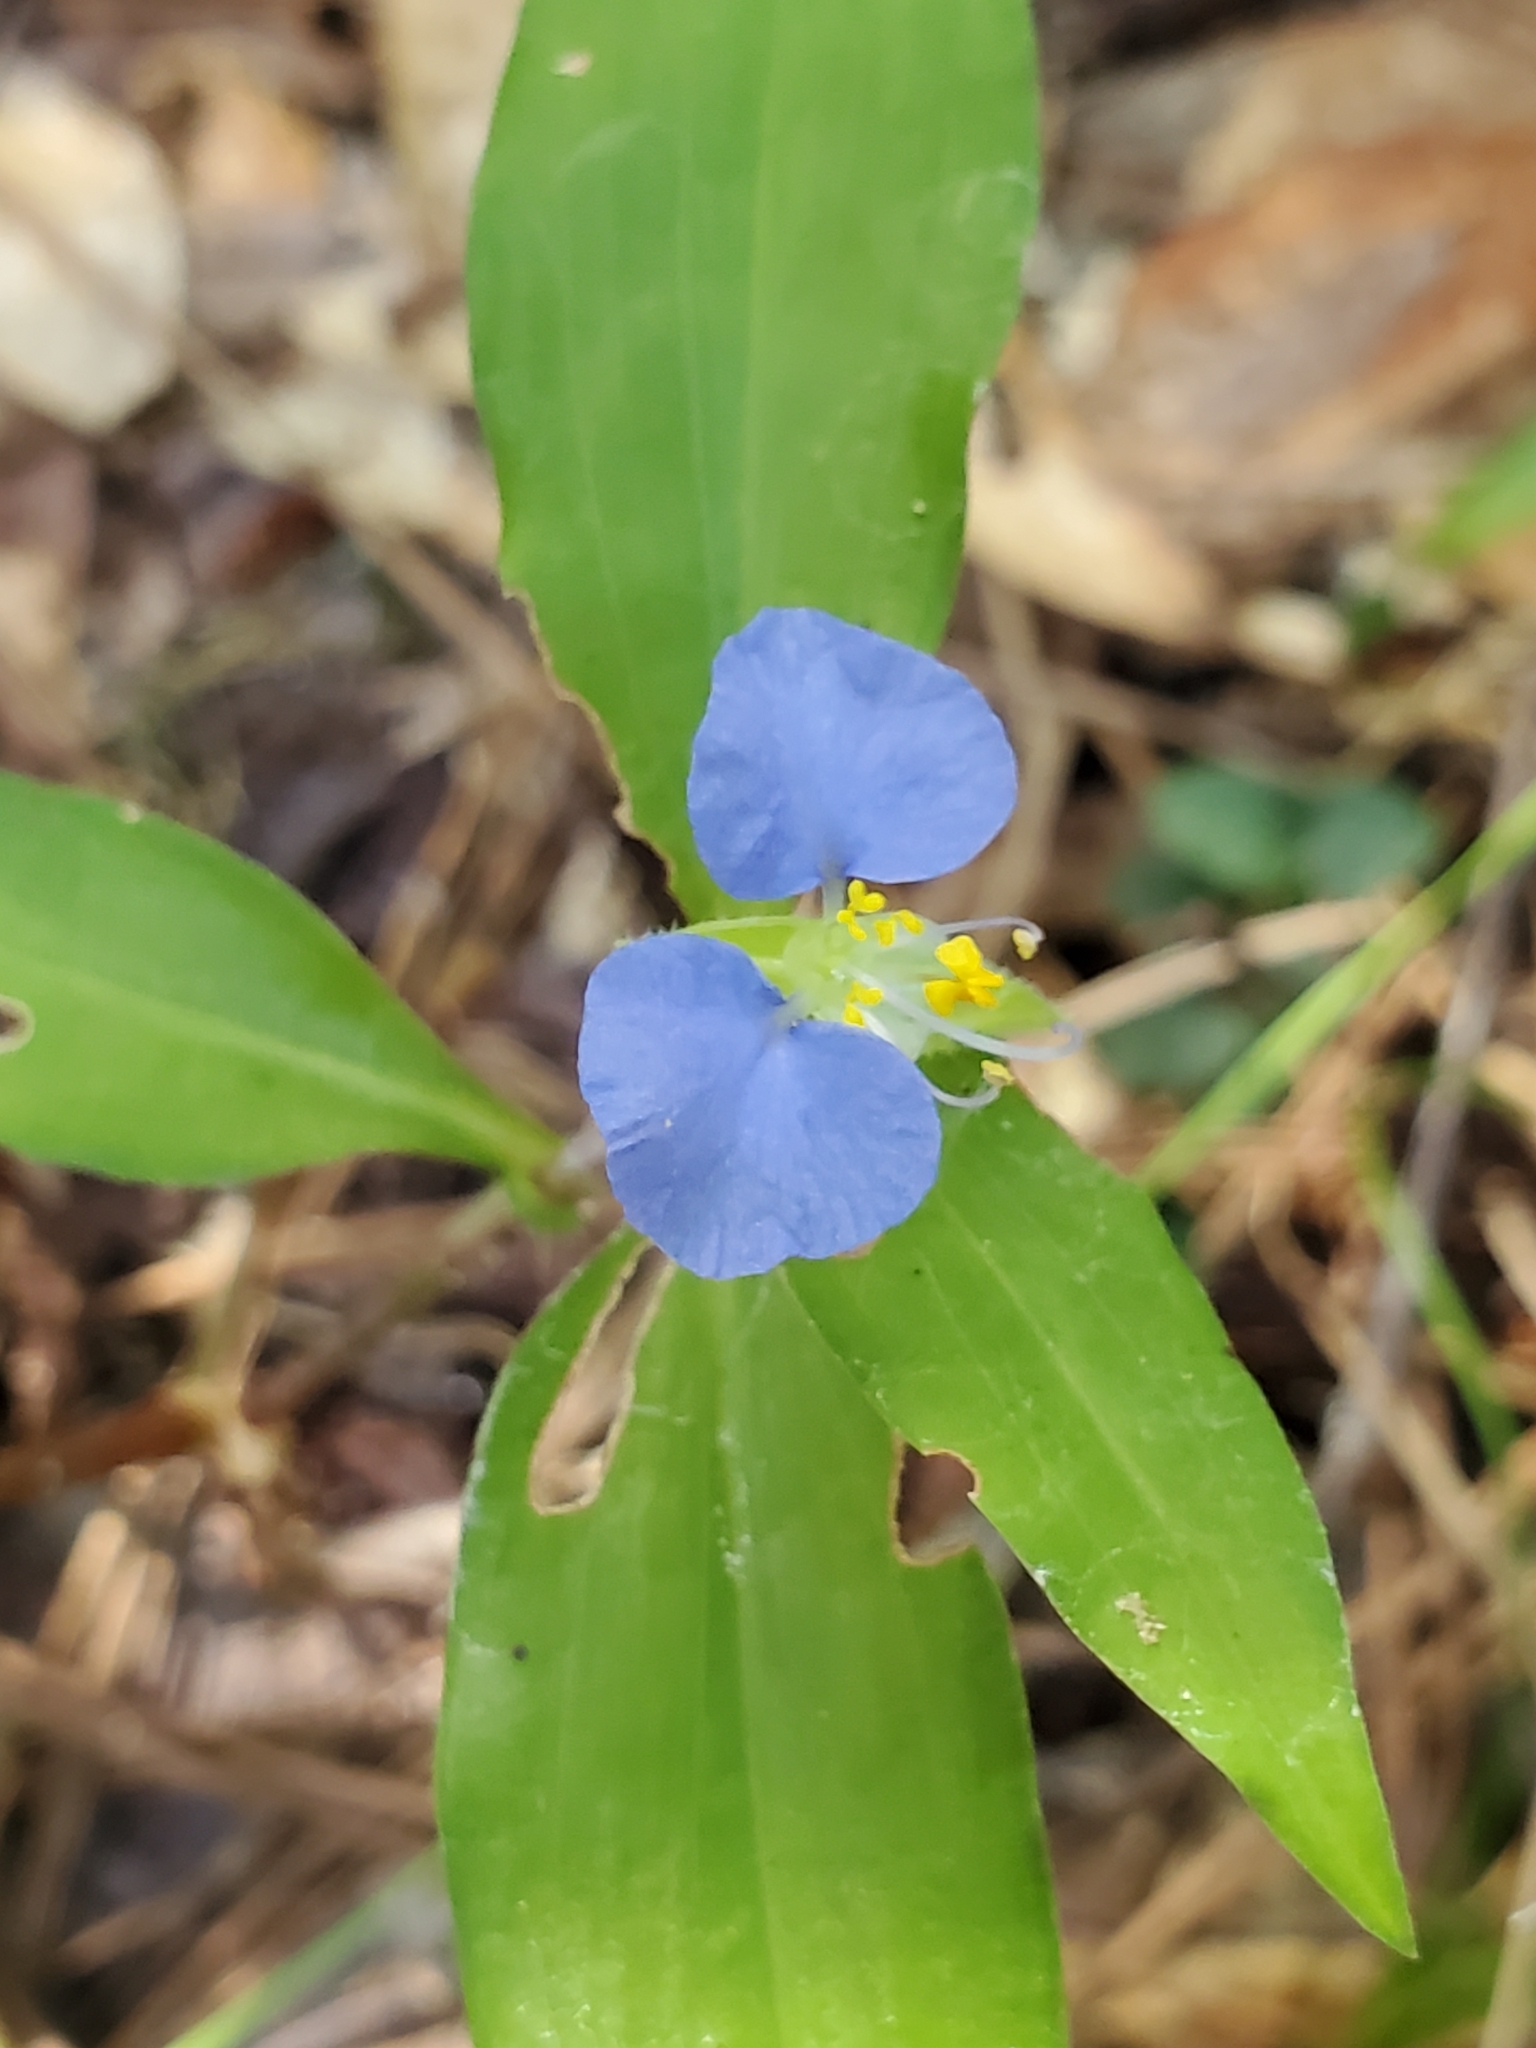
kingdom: Plantae
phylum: Tracheophyta
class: Liliopsida
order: Commelinales
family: Commelinaceae
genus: Commelina
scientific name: Commelina erecta
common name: Blousel blommetjie
